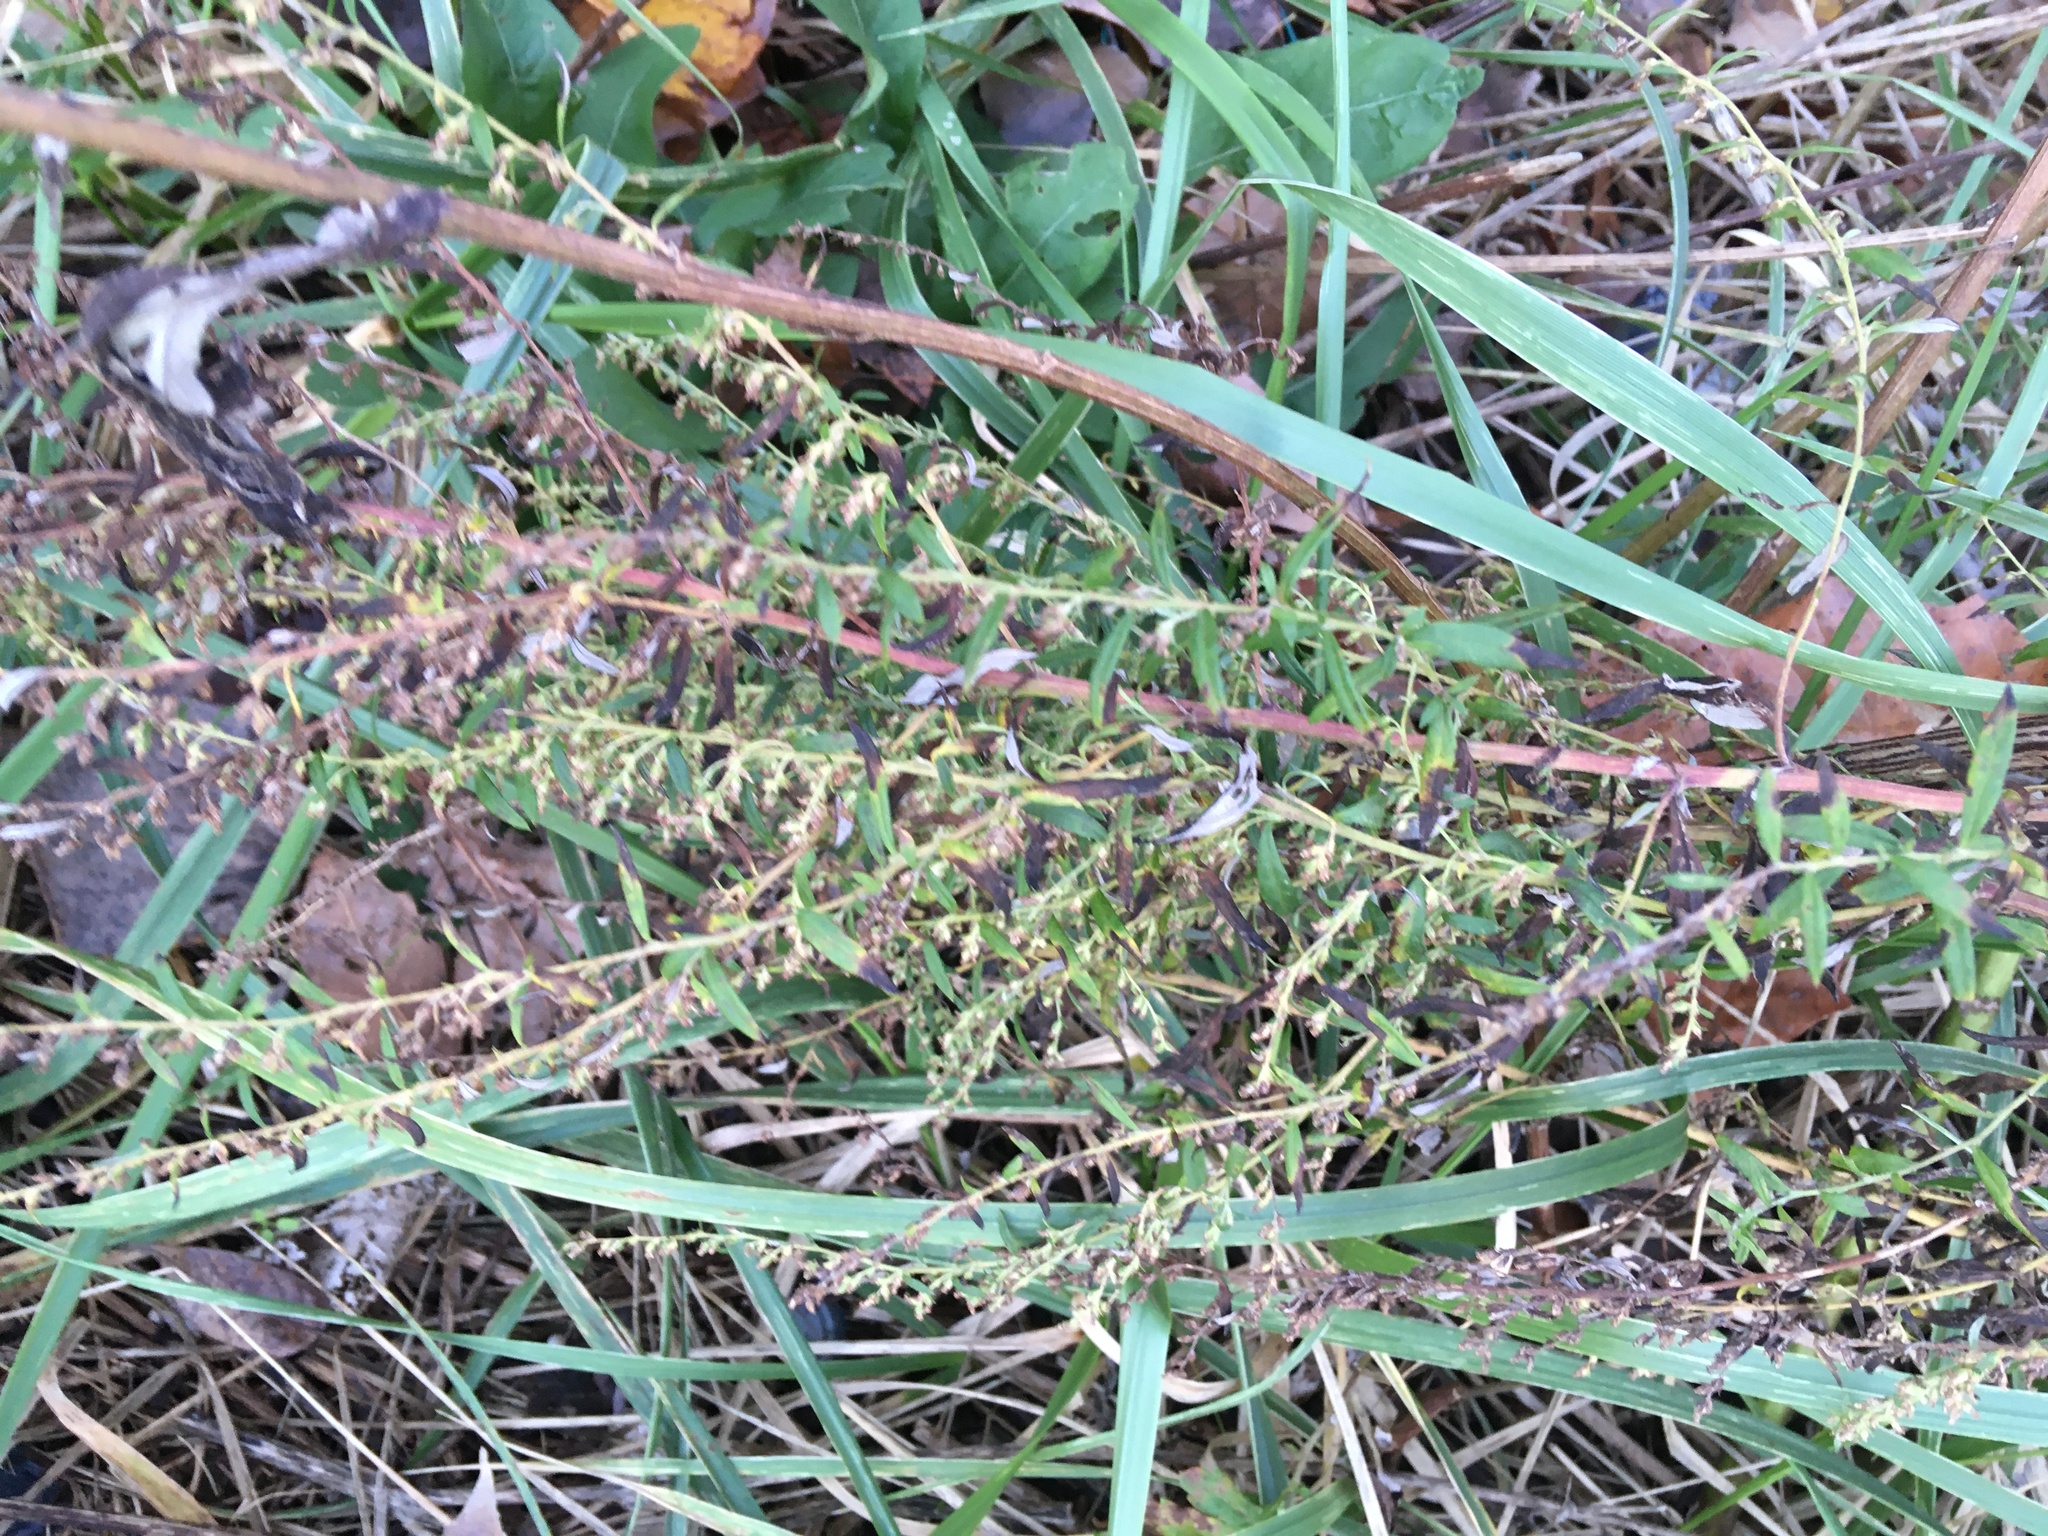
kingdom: Plantae
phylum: Tracheophyta
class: Magnoliopsida
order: Asterales
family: Asteraceae
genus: Artemisia
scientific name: Artemisia vulgaris
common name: Mugwort
